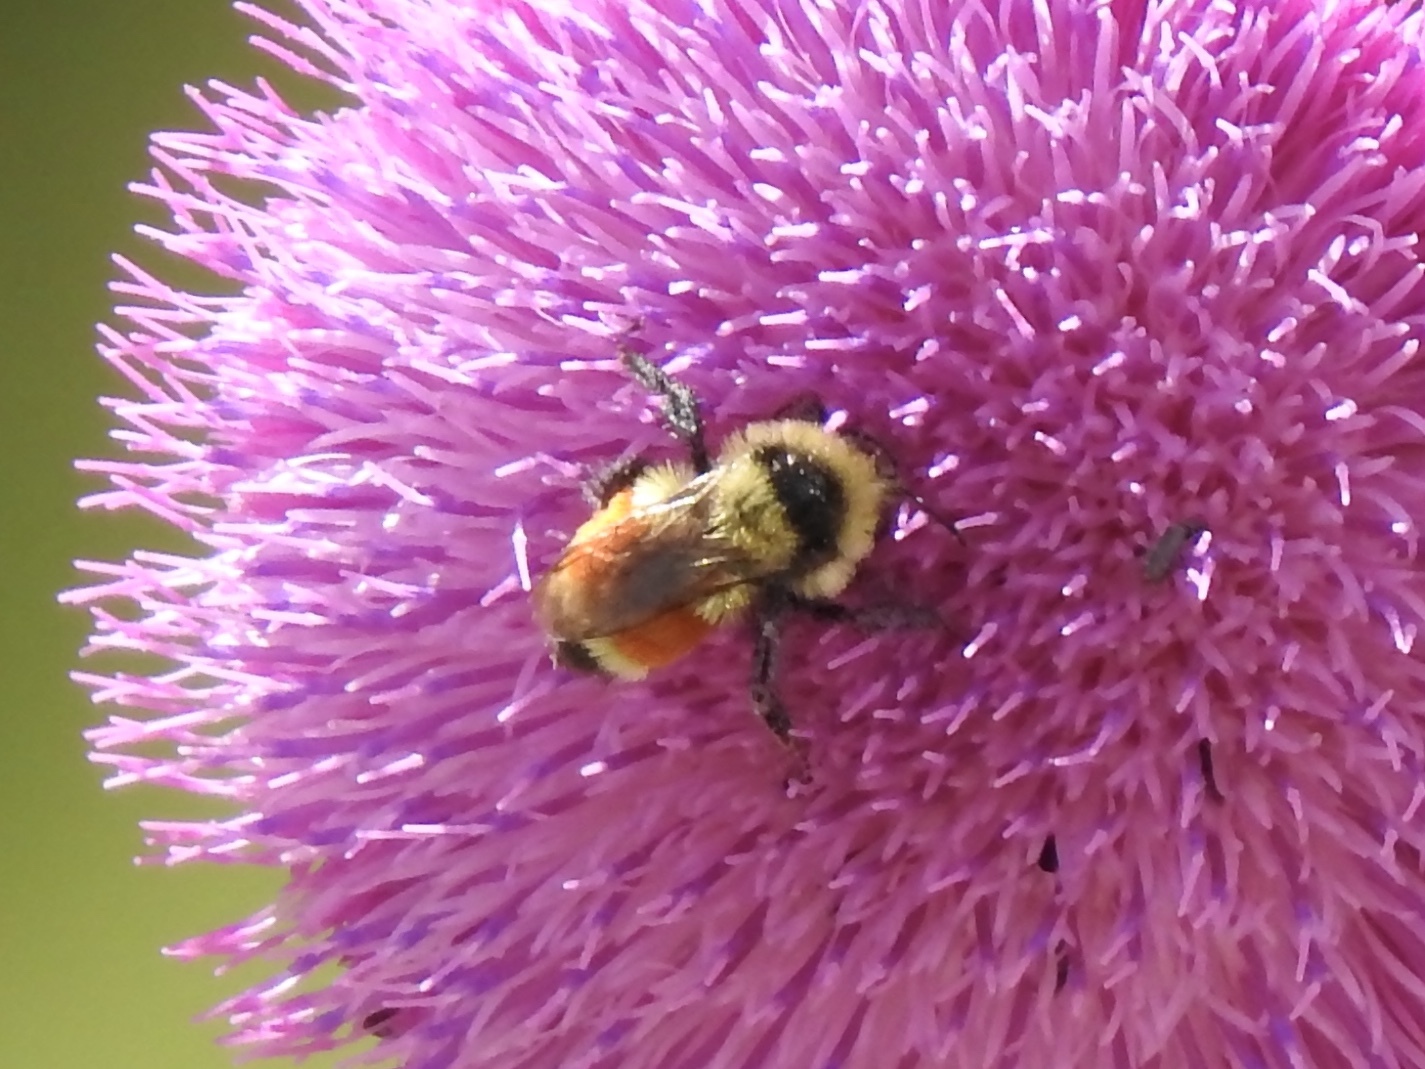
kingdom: Animalia
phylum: Arthropoda
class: Insecta
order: Hymenoptera
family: Apidae
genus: Bombus
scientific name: Bombus huntii
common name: Hunt bumble bee
